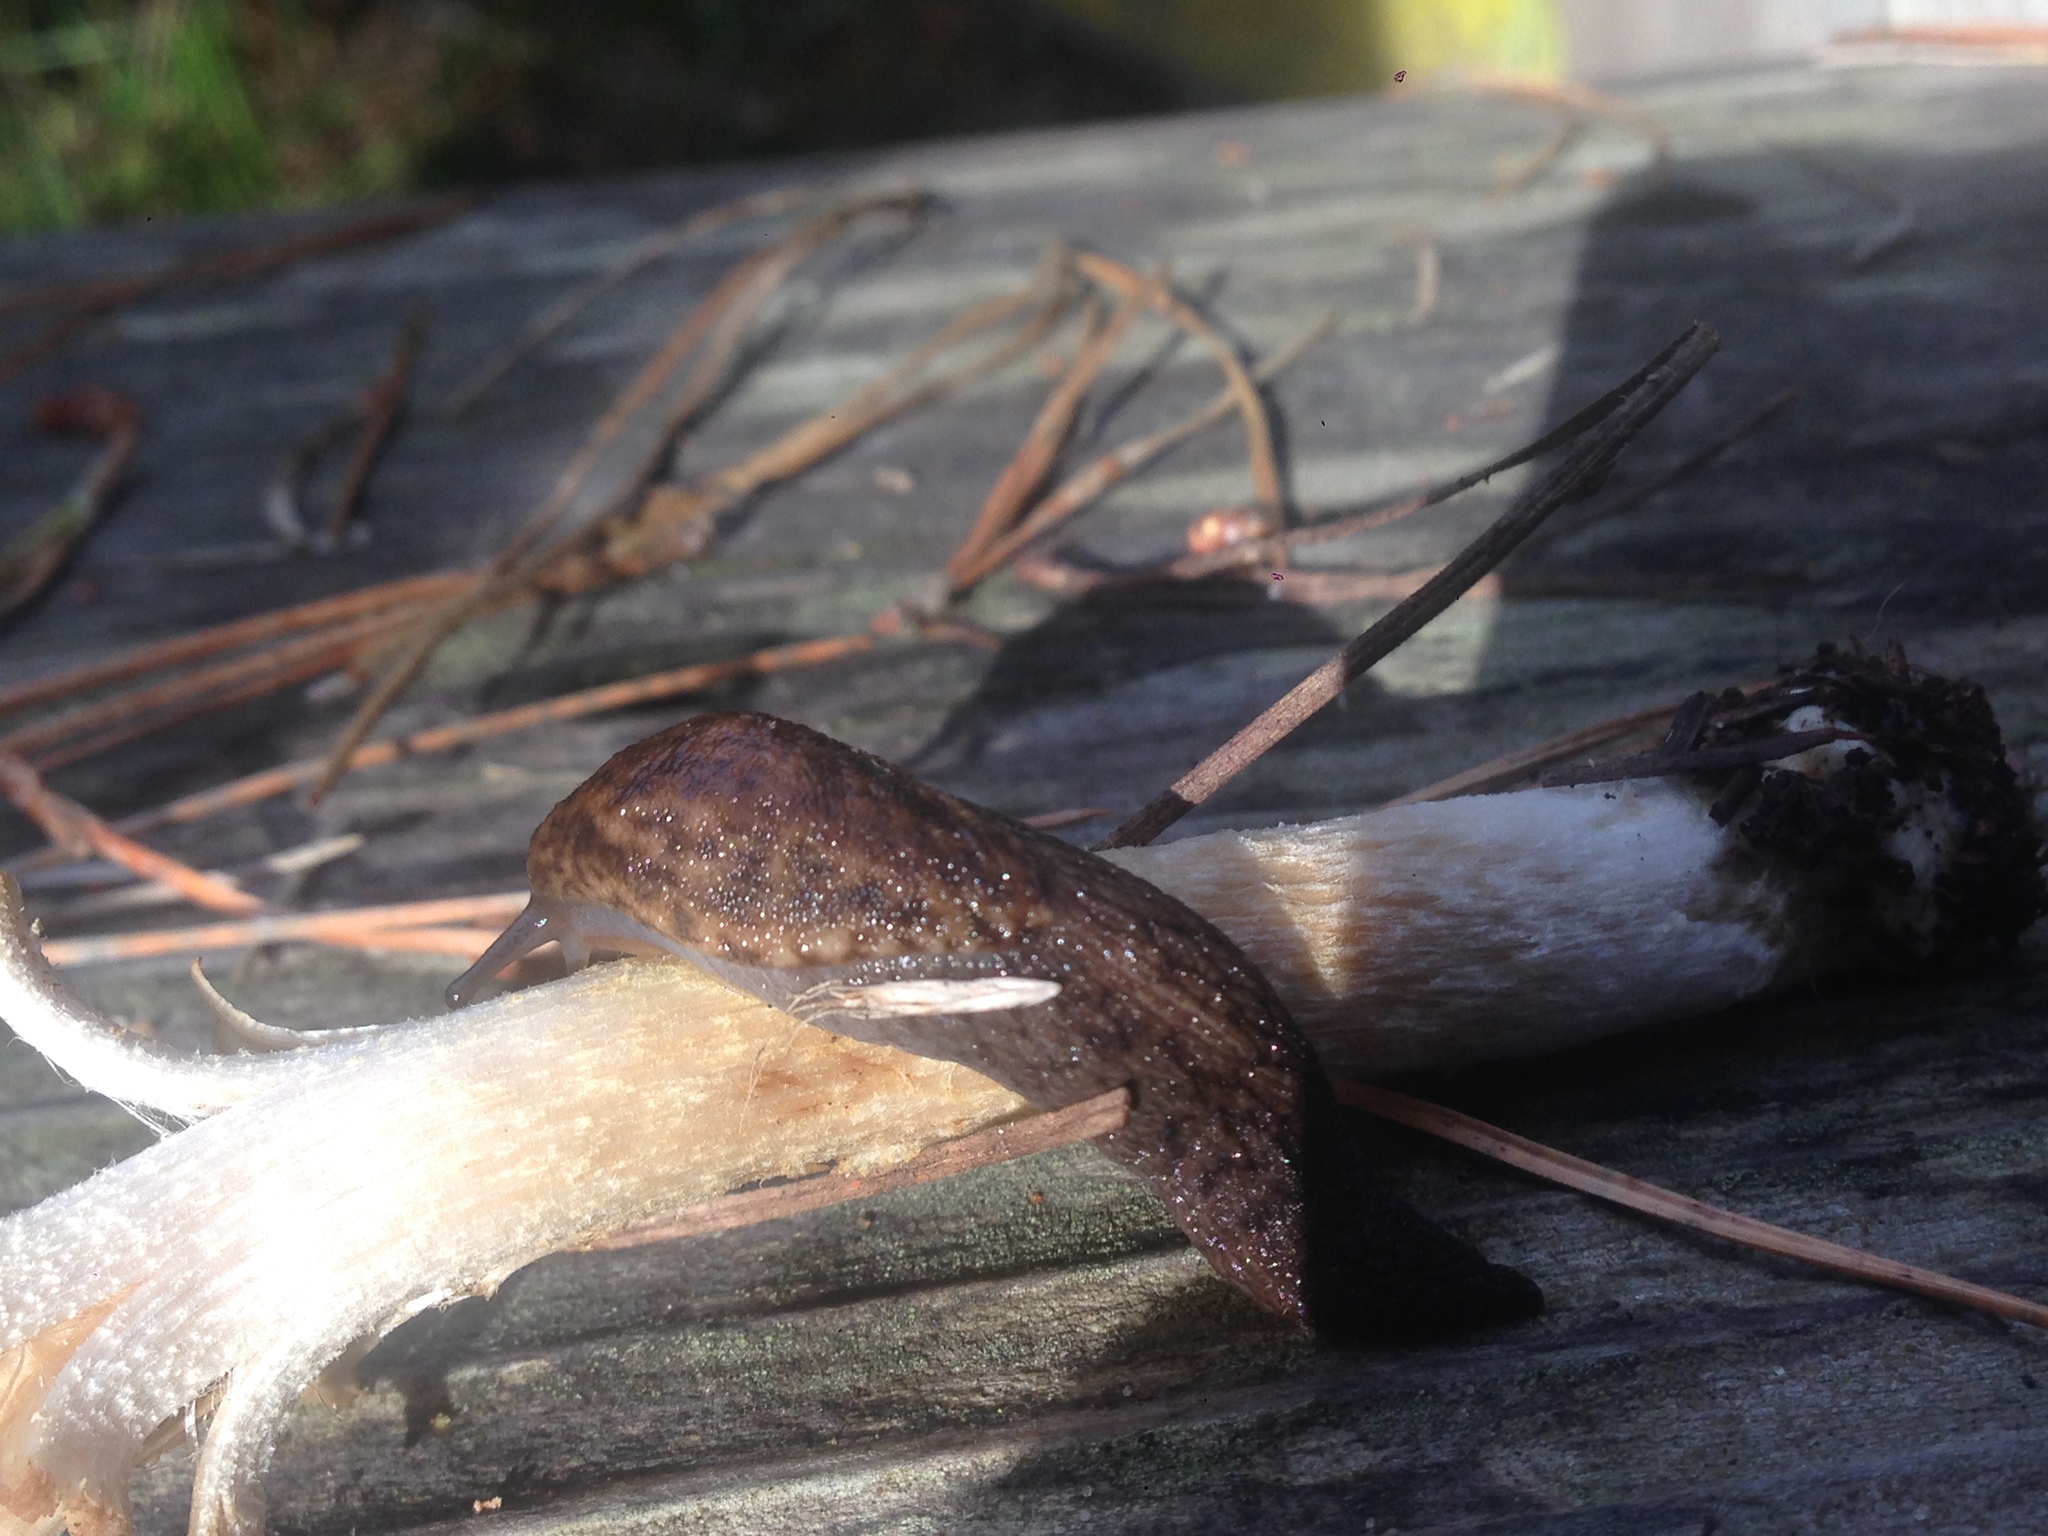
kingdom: Animalia
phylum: Mollusca
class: Gastropoda
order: Stylommatophora
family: Ariolimacidae
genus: Prophysaon
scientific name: Prophysaon andersonii
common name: Reticulate taildropper
